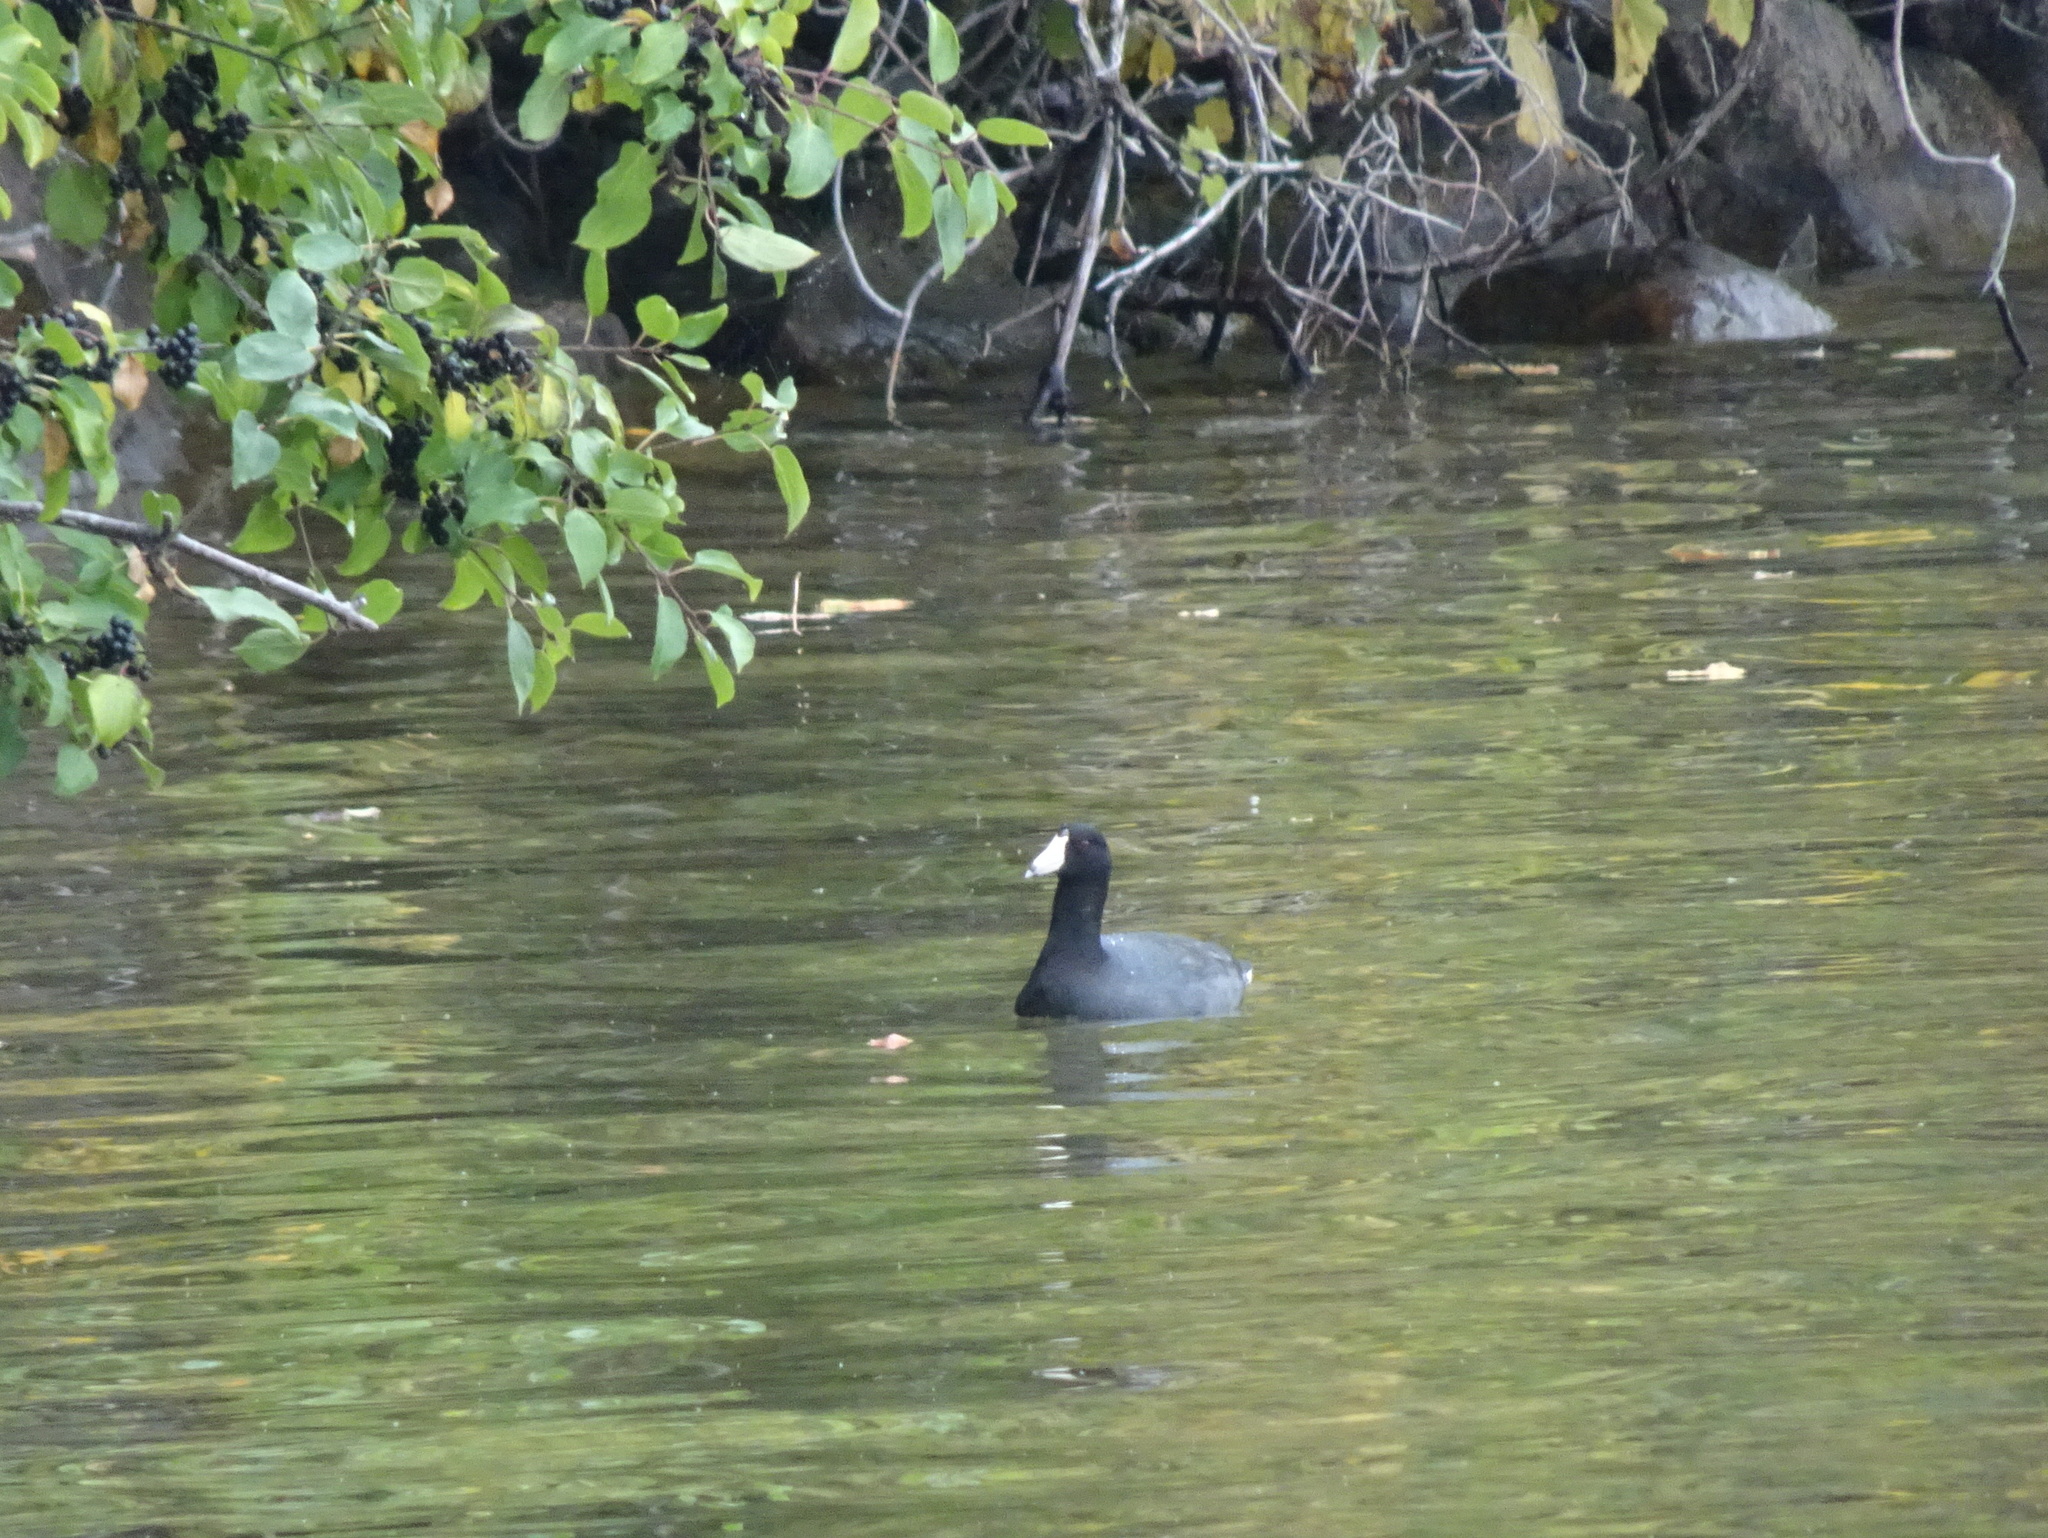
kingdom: Animalia
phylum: Chordata
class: Aves
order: Gruiformes
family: Rallidae
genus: Fulica
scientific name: Fulica americana
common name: American coot
